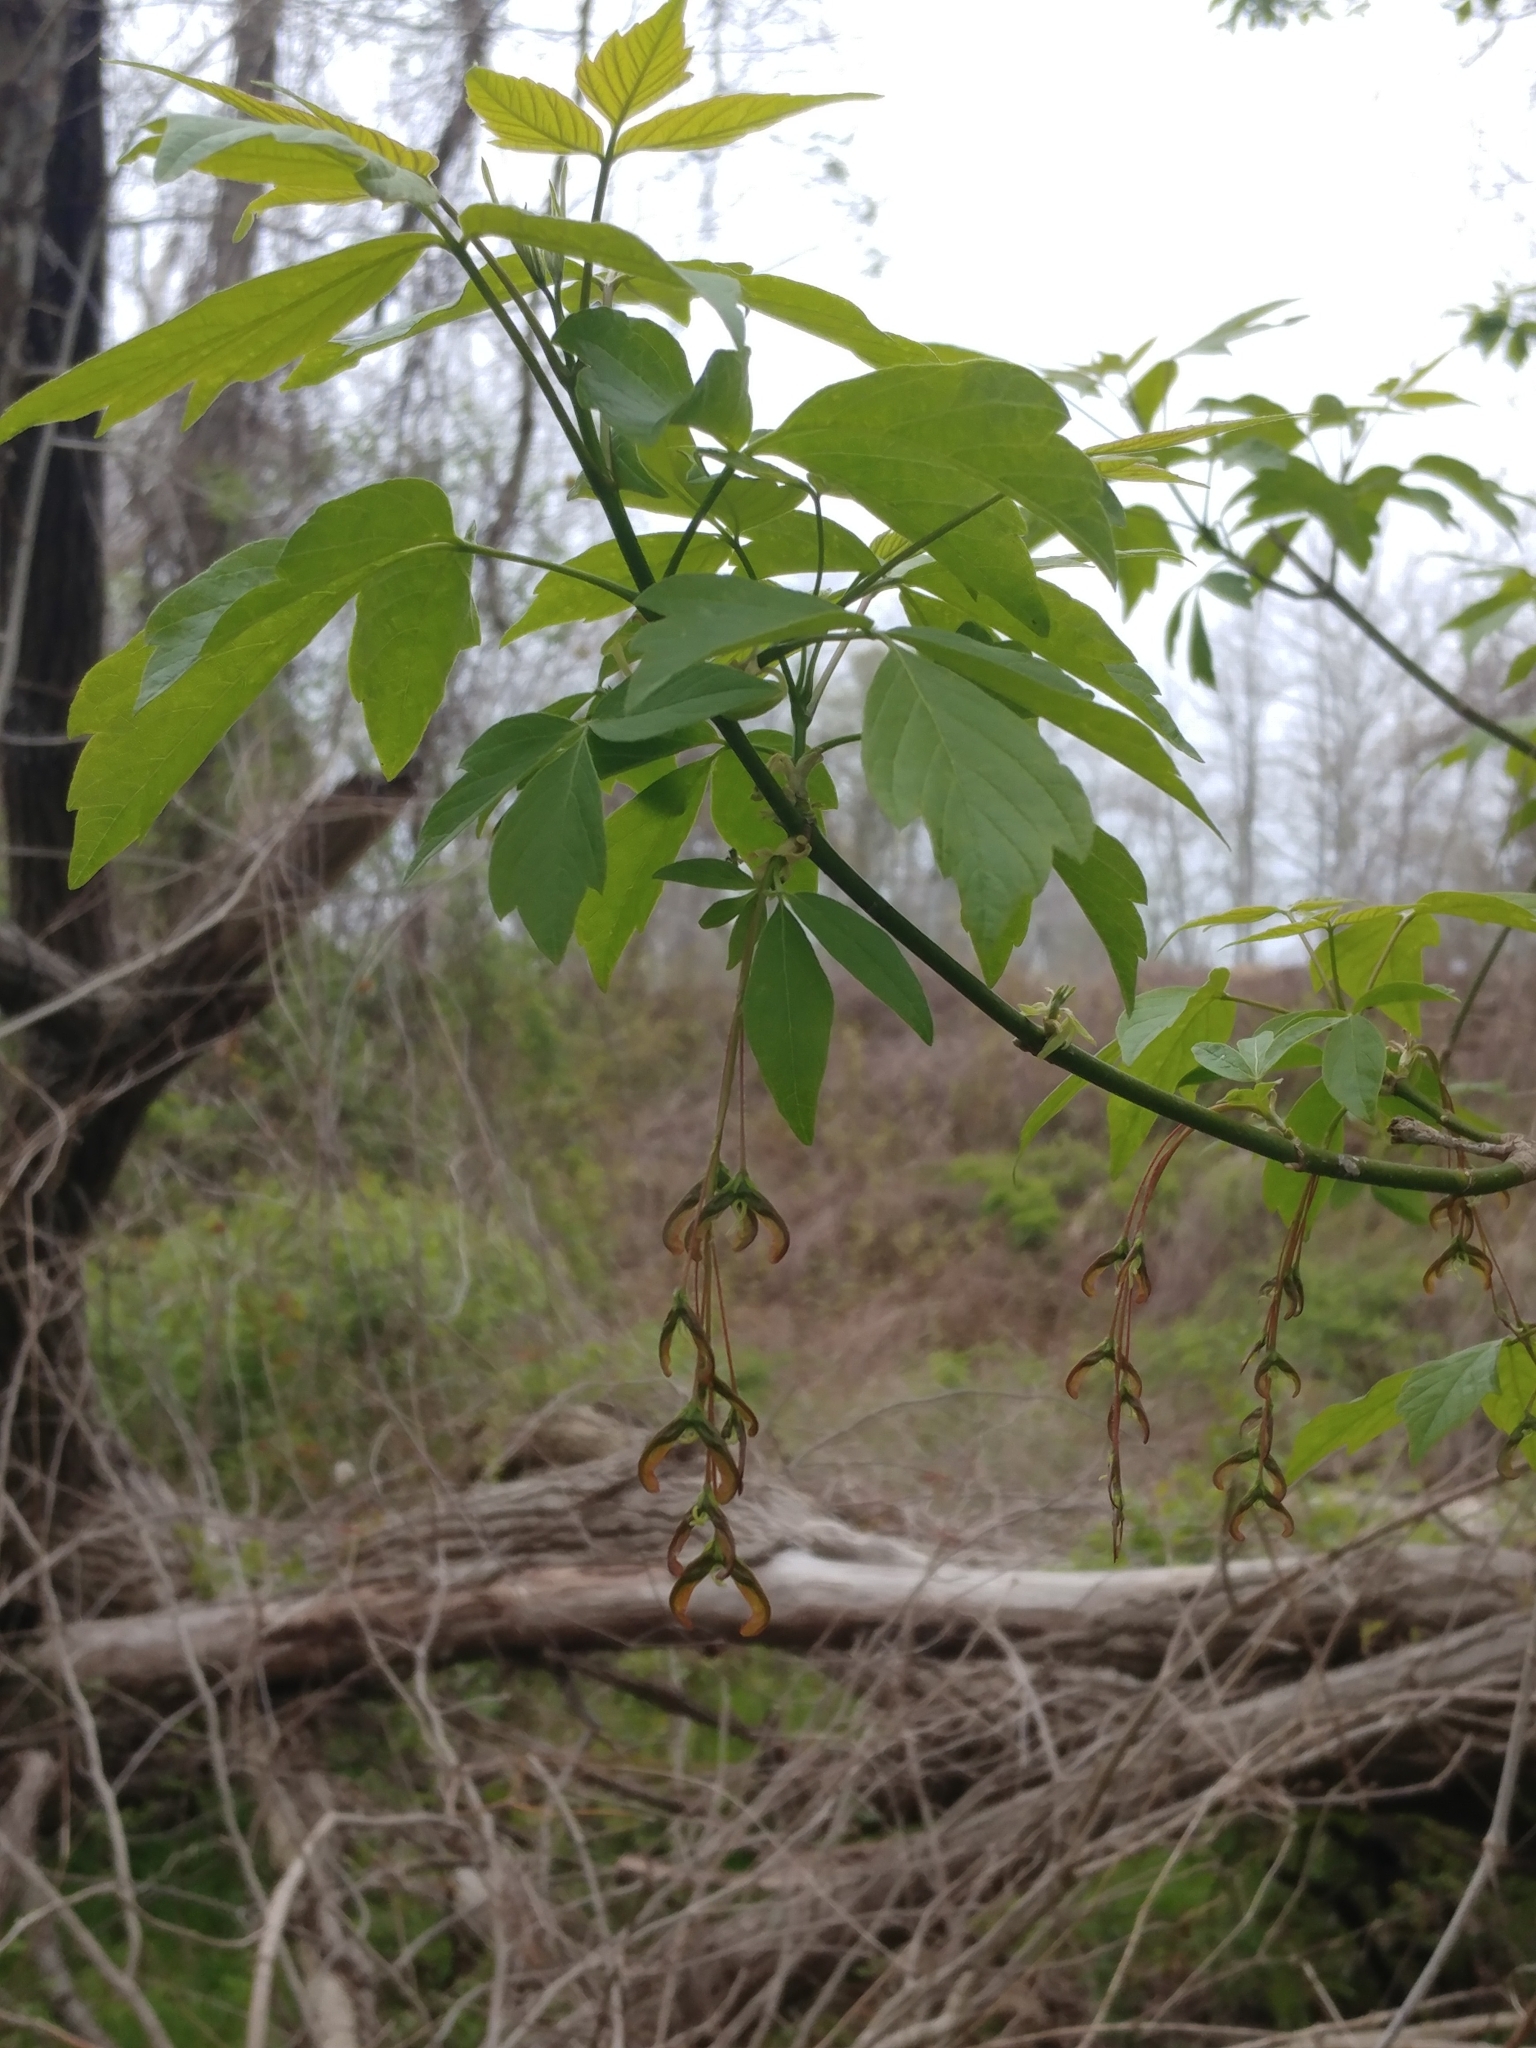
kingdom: Plantae
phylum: Tracheophyta
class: Magnoliopsida
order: Sapindales
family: Sapindaceae
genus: Acer
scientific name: Acer negundo
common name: Ashleaf maple
